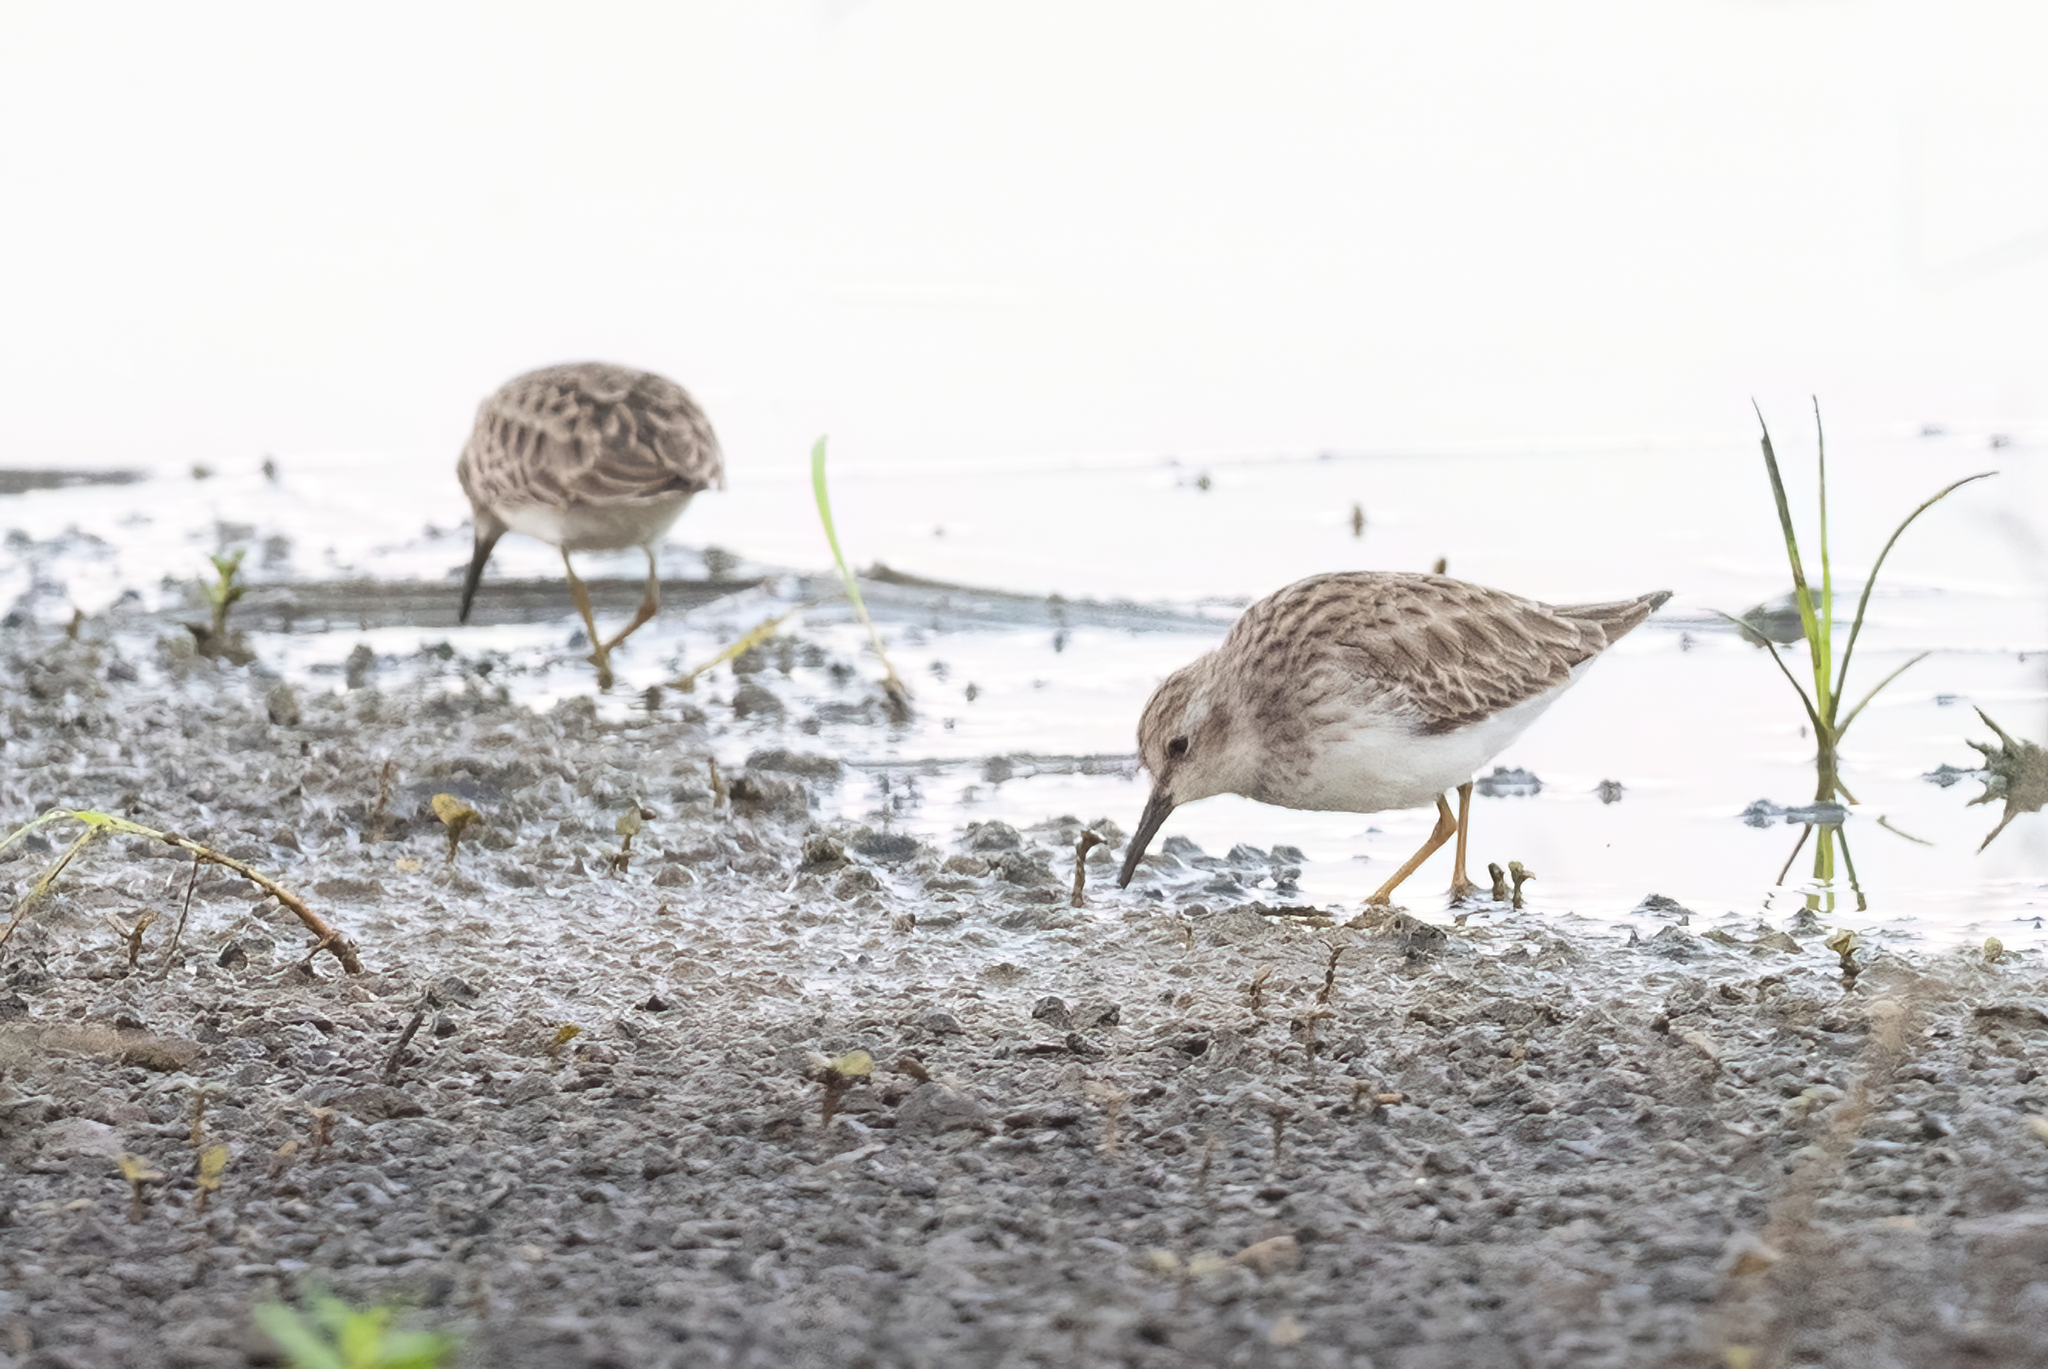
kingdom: Animalia
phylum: Chordata
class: Aves
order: Charadriiformes
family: Scolopacidae
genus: Calidris
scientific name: Calidris minutilla
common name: Least sandpiper
